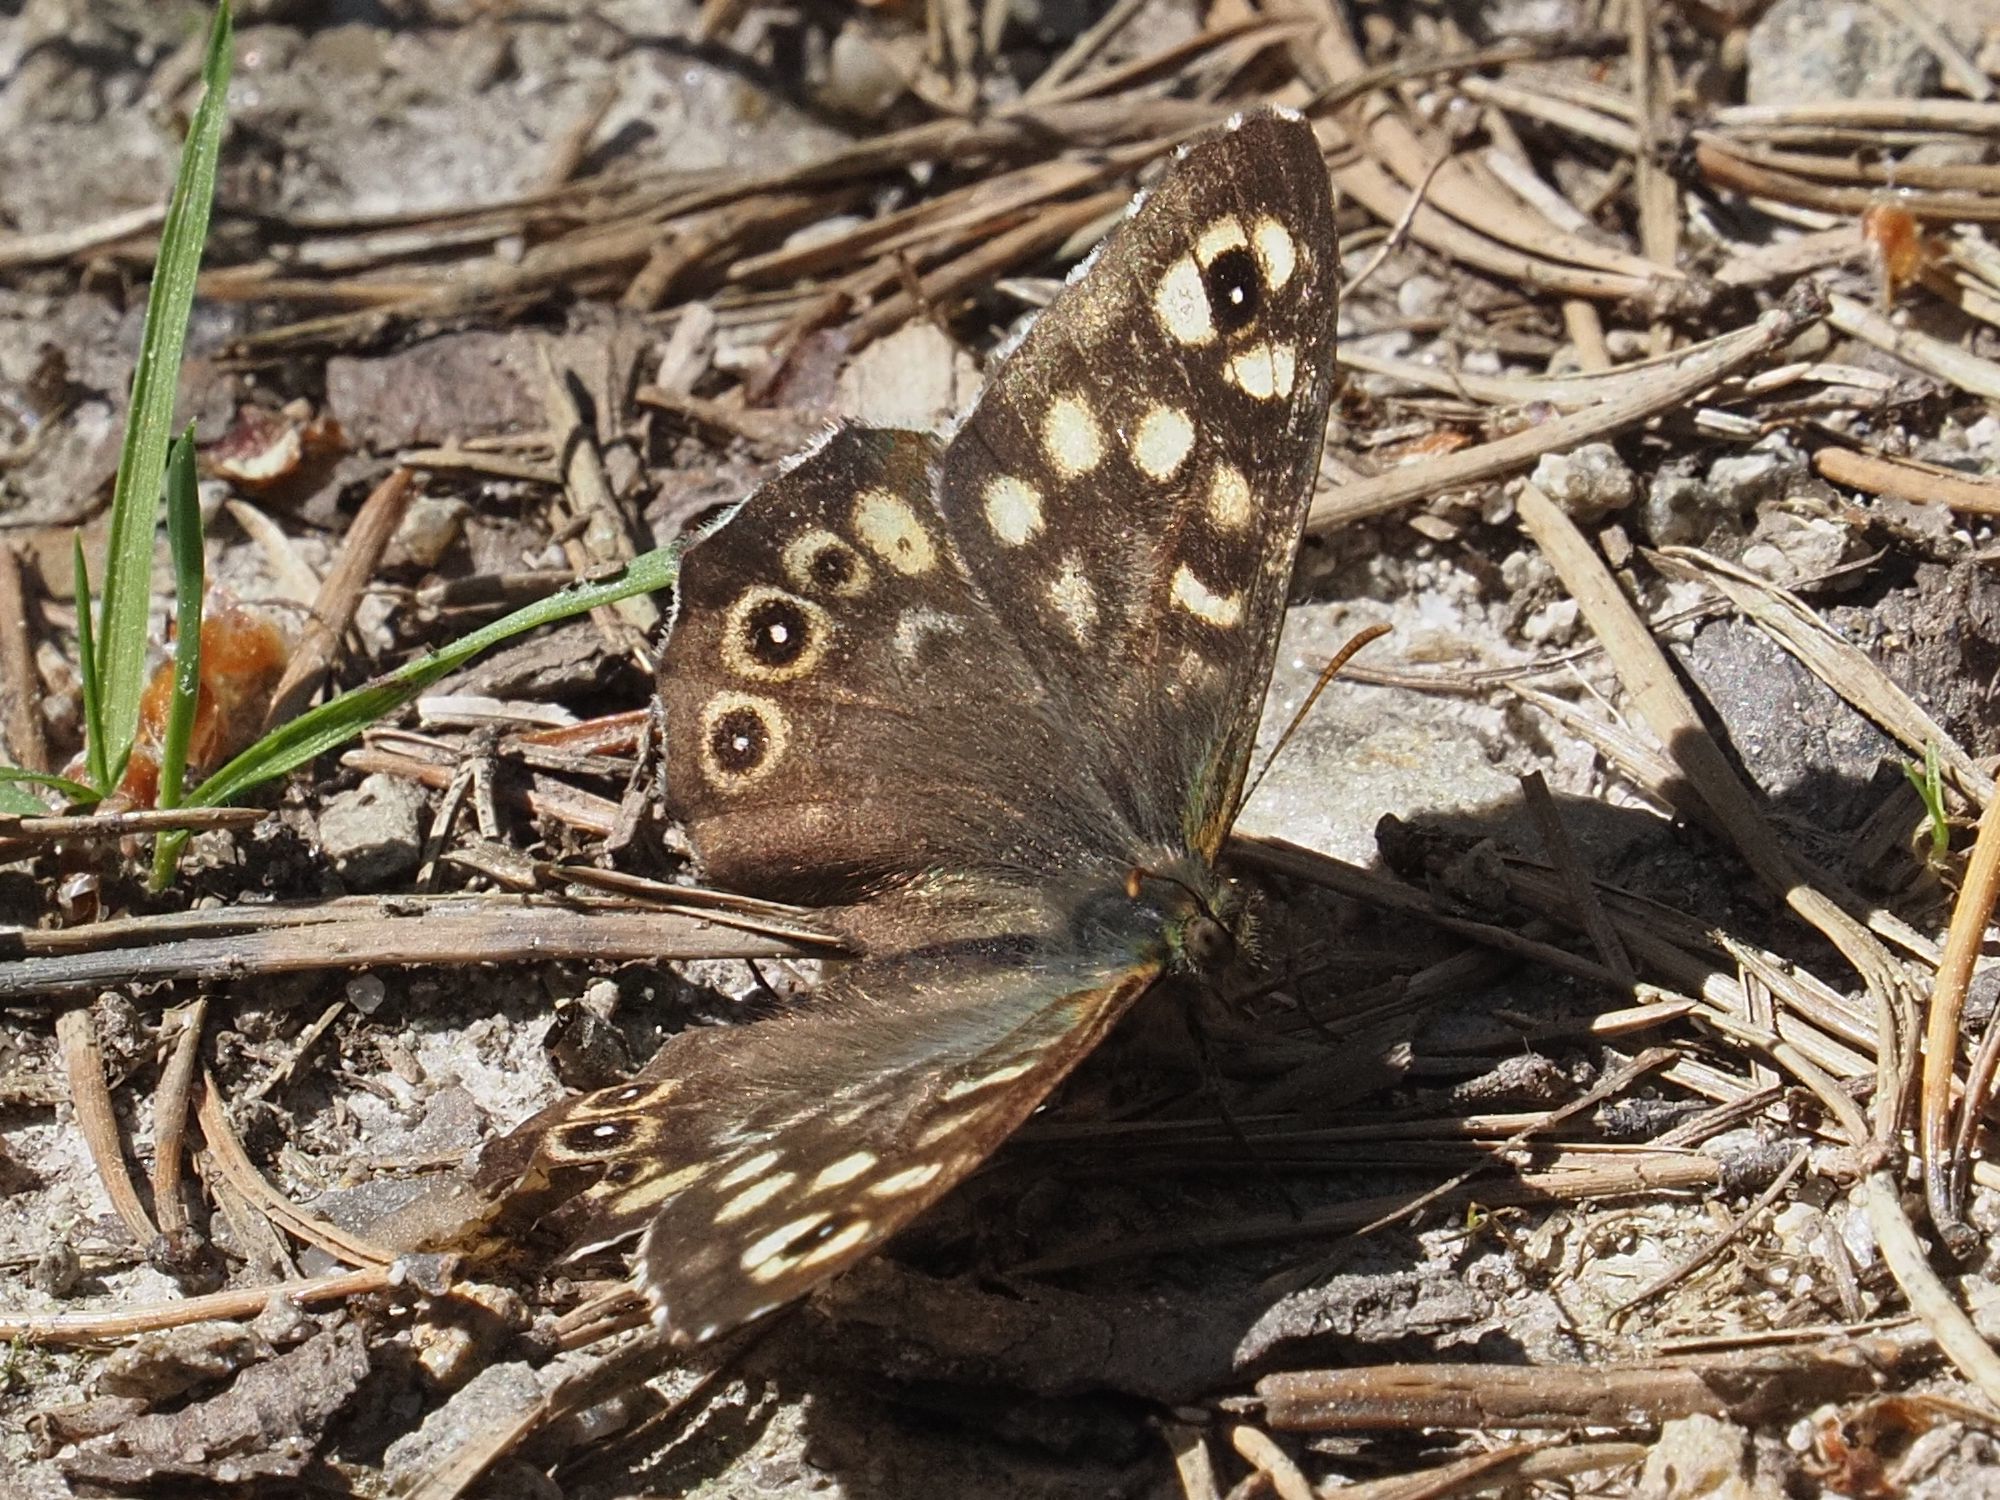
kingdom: Animalia
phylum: Arthropoda
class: Insecta
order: Lepidoptera
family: Nymphalidae
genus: Pararge
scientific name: Pararge aegeria
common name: Speckled wood
